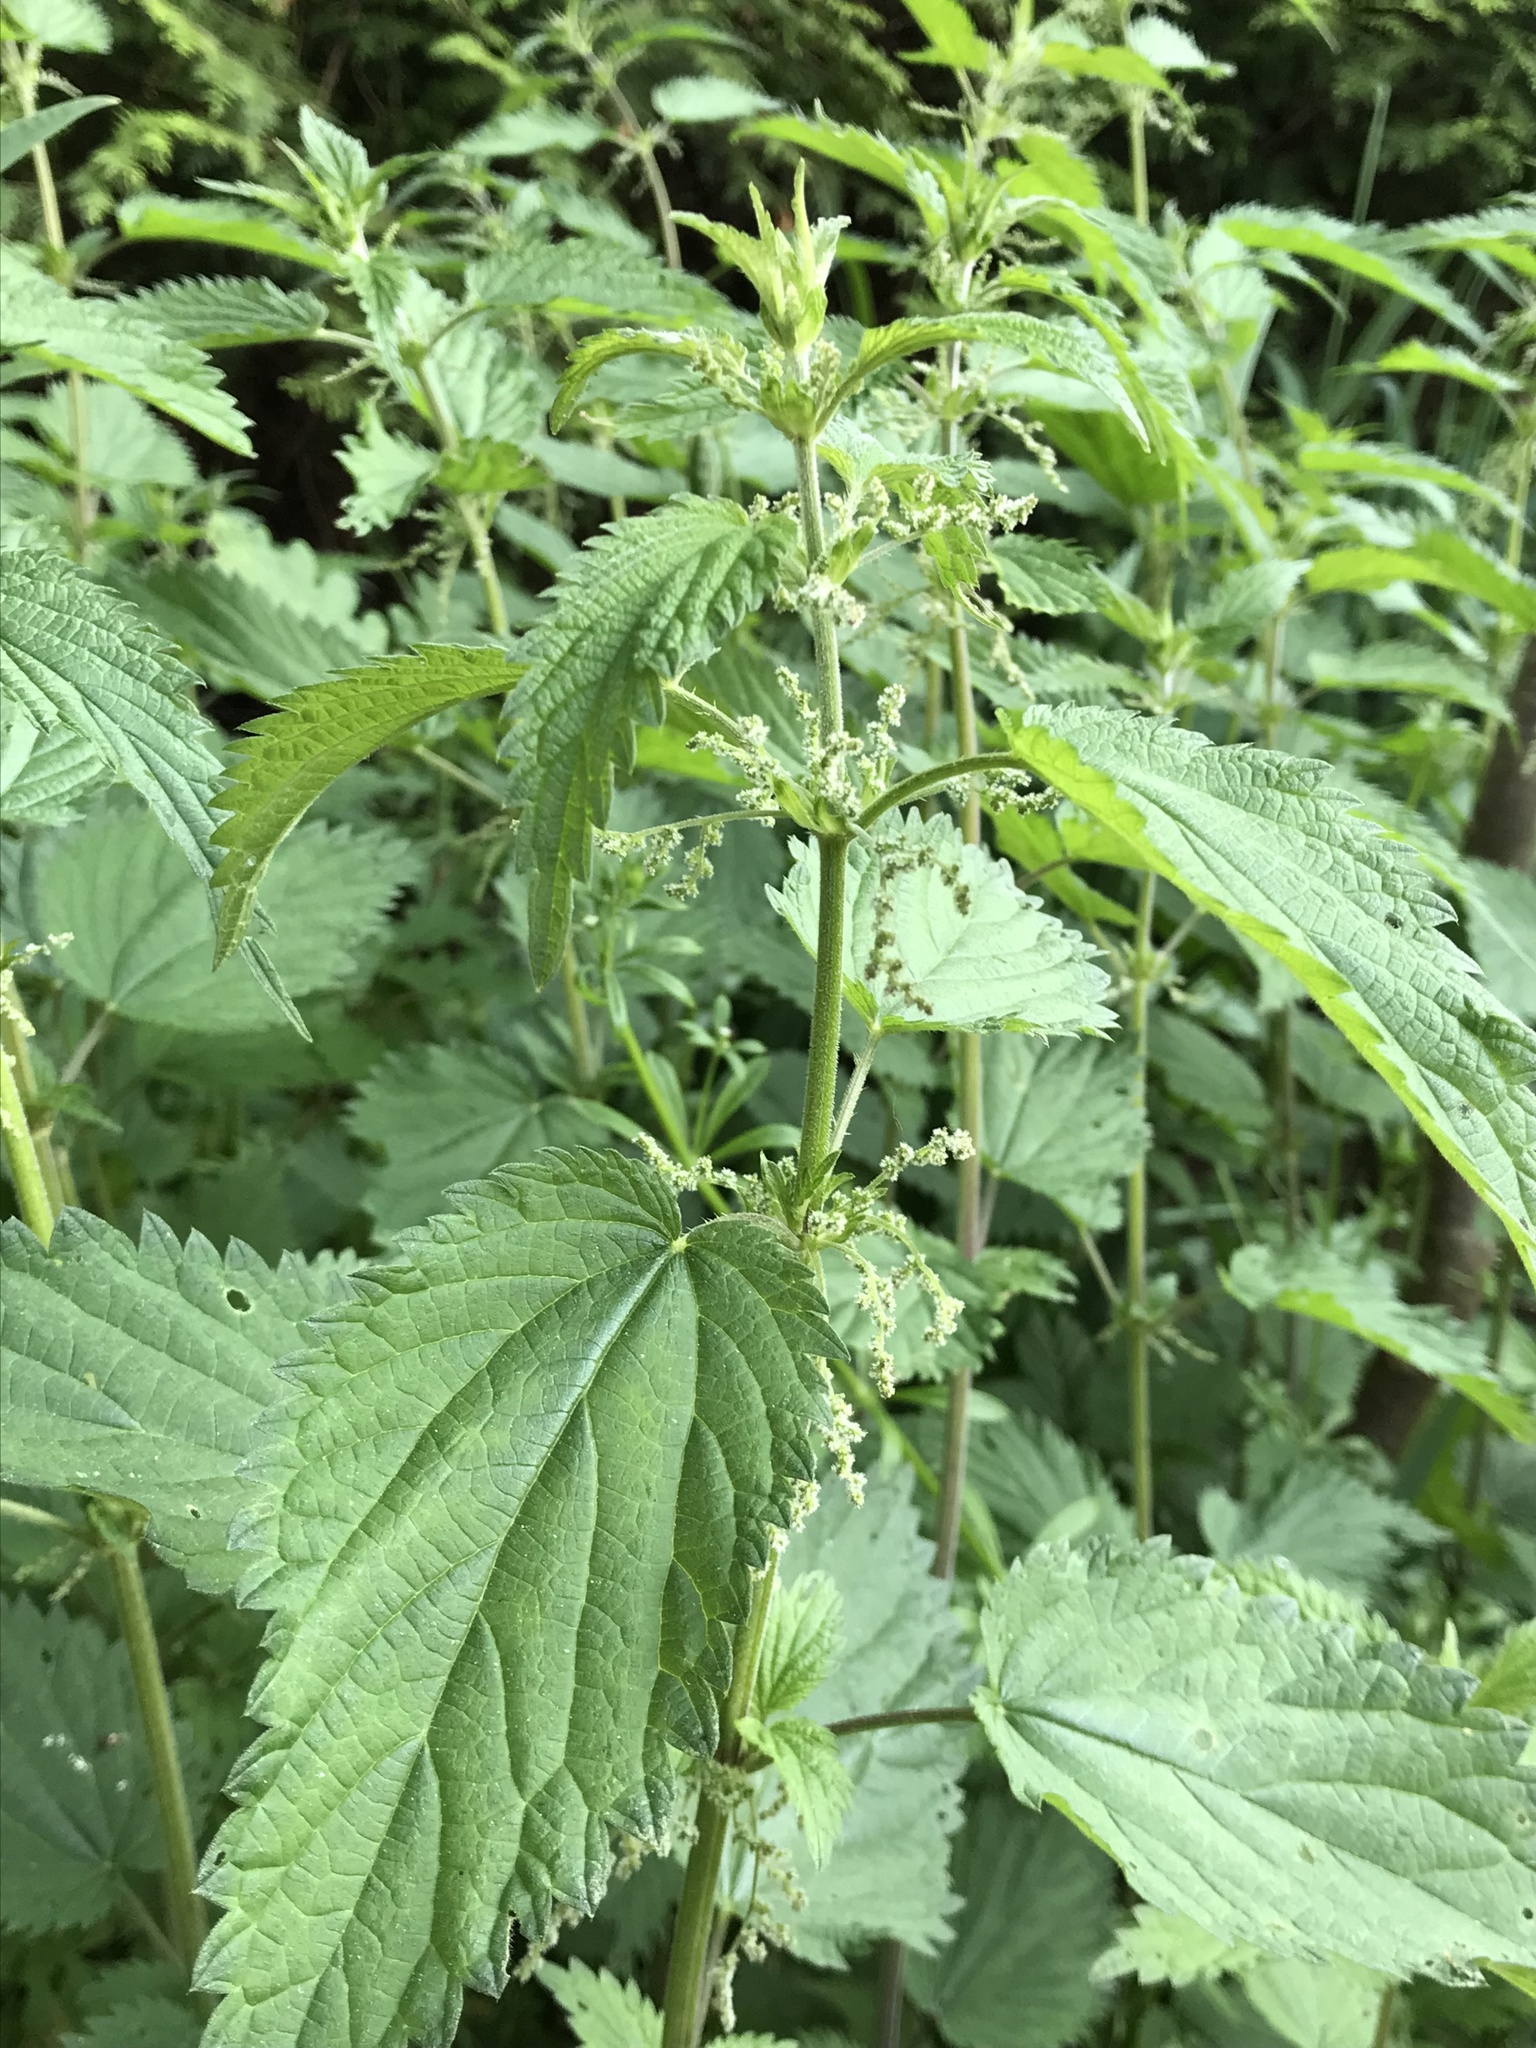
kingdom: Plantae
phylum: Tracheophyta
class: Magnoliopsida
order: Rosales
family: Urticaceae
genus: Urtica
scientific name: Urtica dioica
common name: Common nettle
